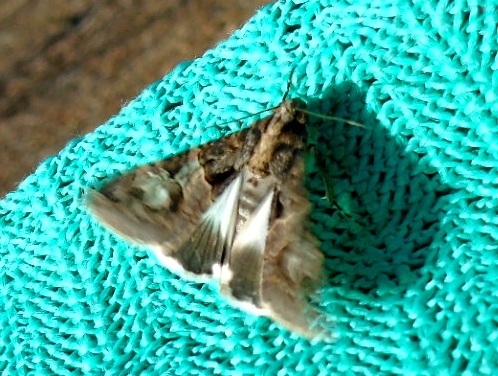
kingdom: Animalia
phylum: Arthropoda
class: Insecta
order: Lepidoptera
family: Erebidae
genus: Melipotis
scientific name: Melipotis
